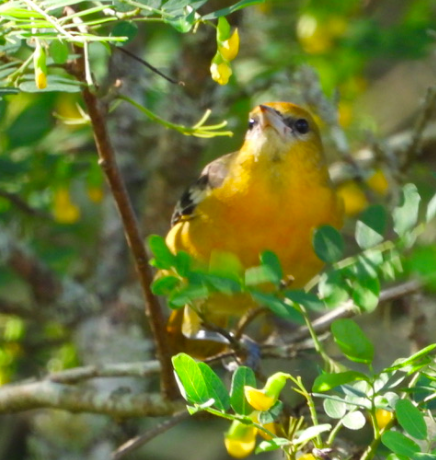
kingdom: Animalia
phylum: Chordata
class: Aves
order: Passeriformes
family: Icteridae
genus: Icterus
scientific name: Icterus galbula
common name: Baltimore oriole
